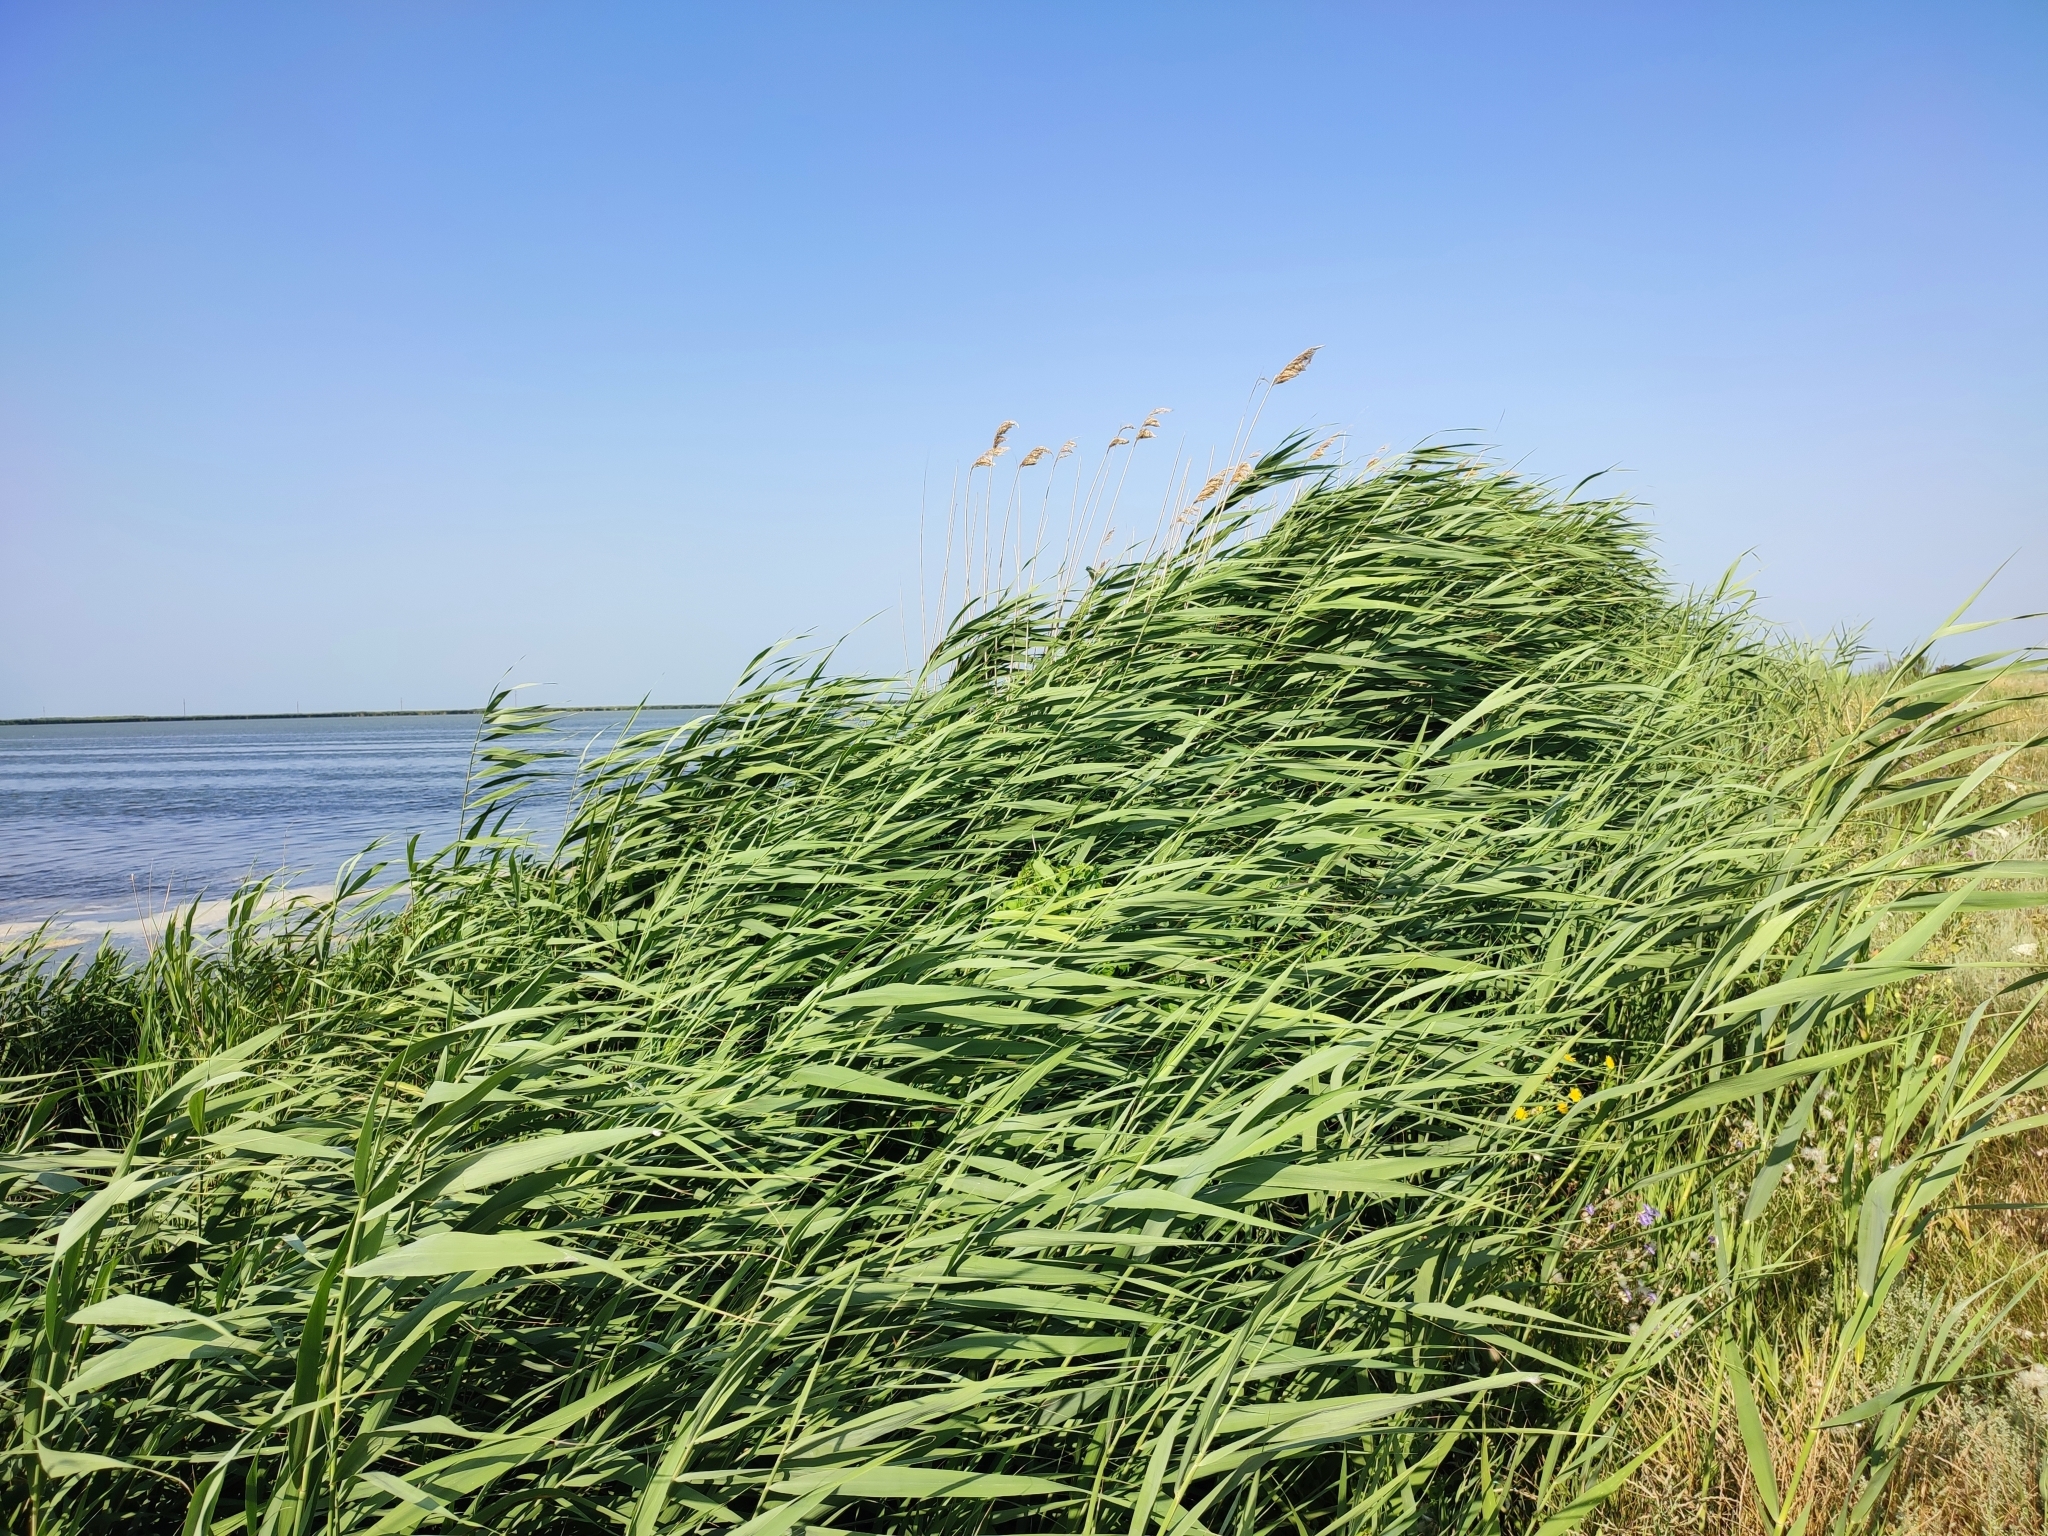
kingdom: Plantae
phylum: Tracheophyta
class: Liliopsida
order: Poales
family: Poaceae
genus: Phragmites
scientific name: Phragmites australis
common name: Common reed
